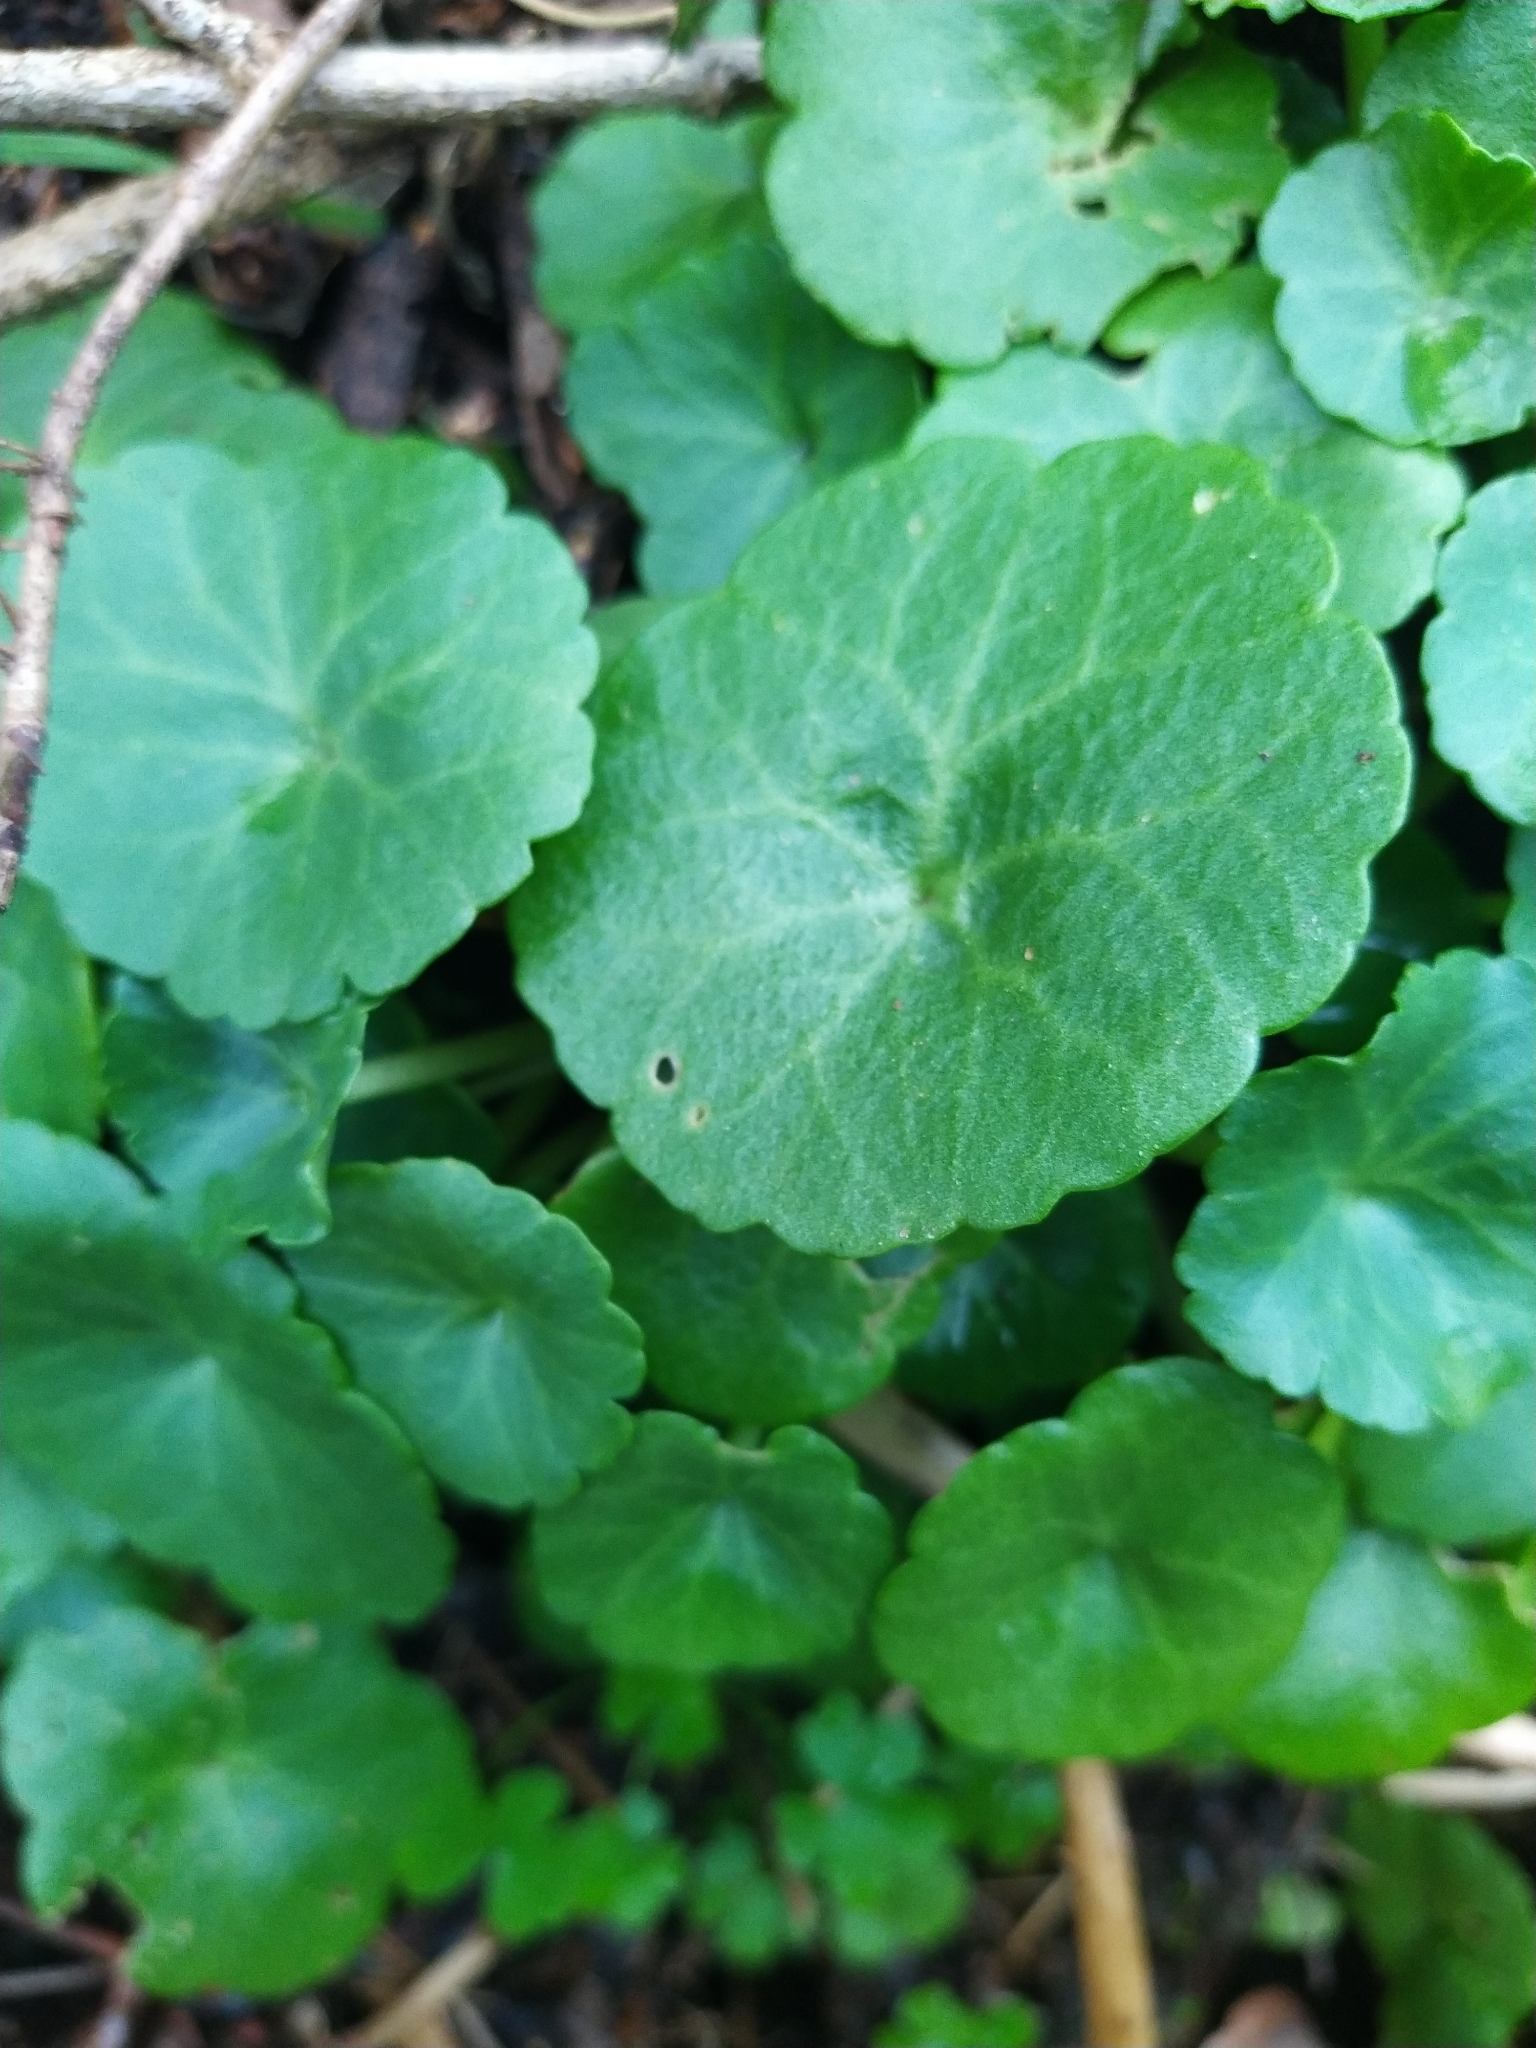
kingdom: Plantae
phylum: Tracheophyta
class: Magnoliopsida
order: Saxifragales
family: Crassulaceae
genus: Umbilicus
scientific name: Umbilicus rupestris
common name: Navelwort
